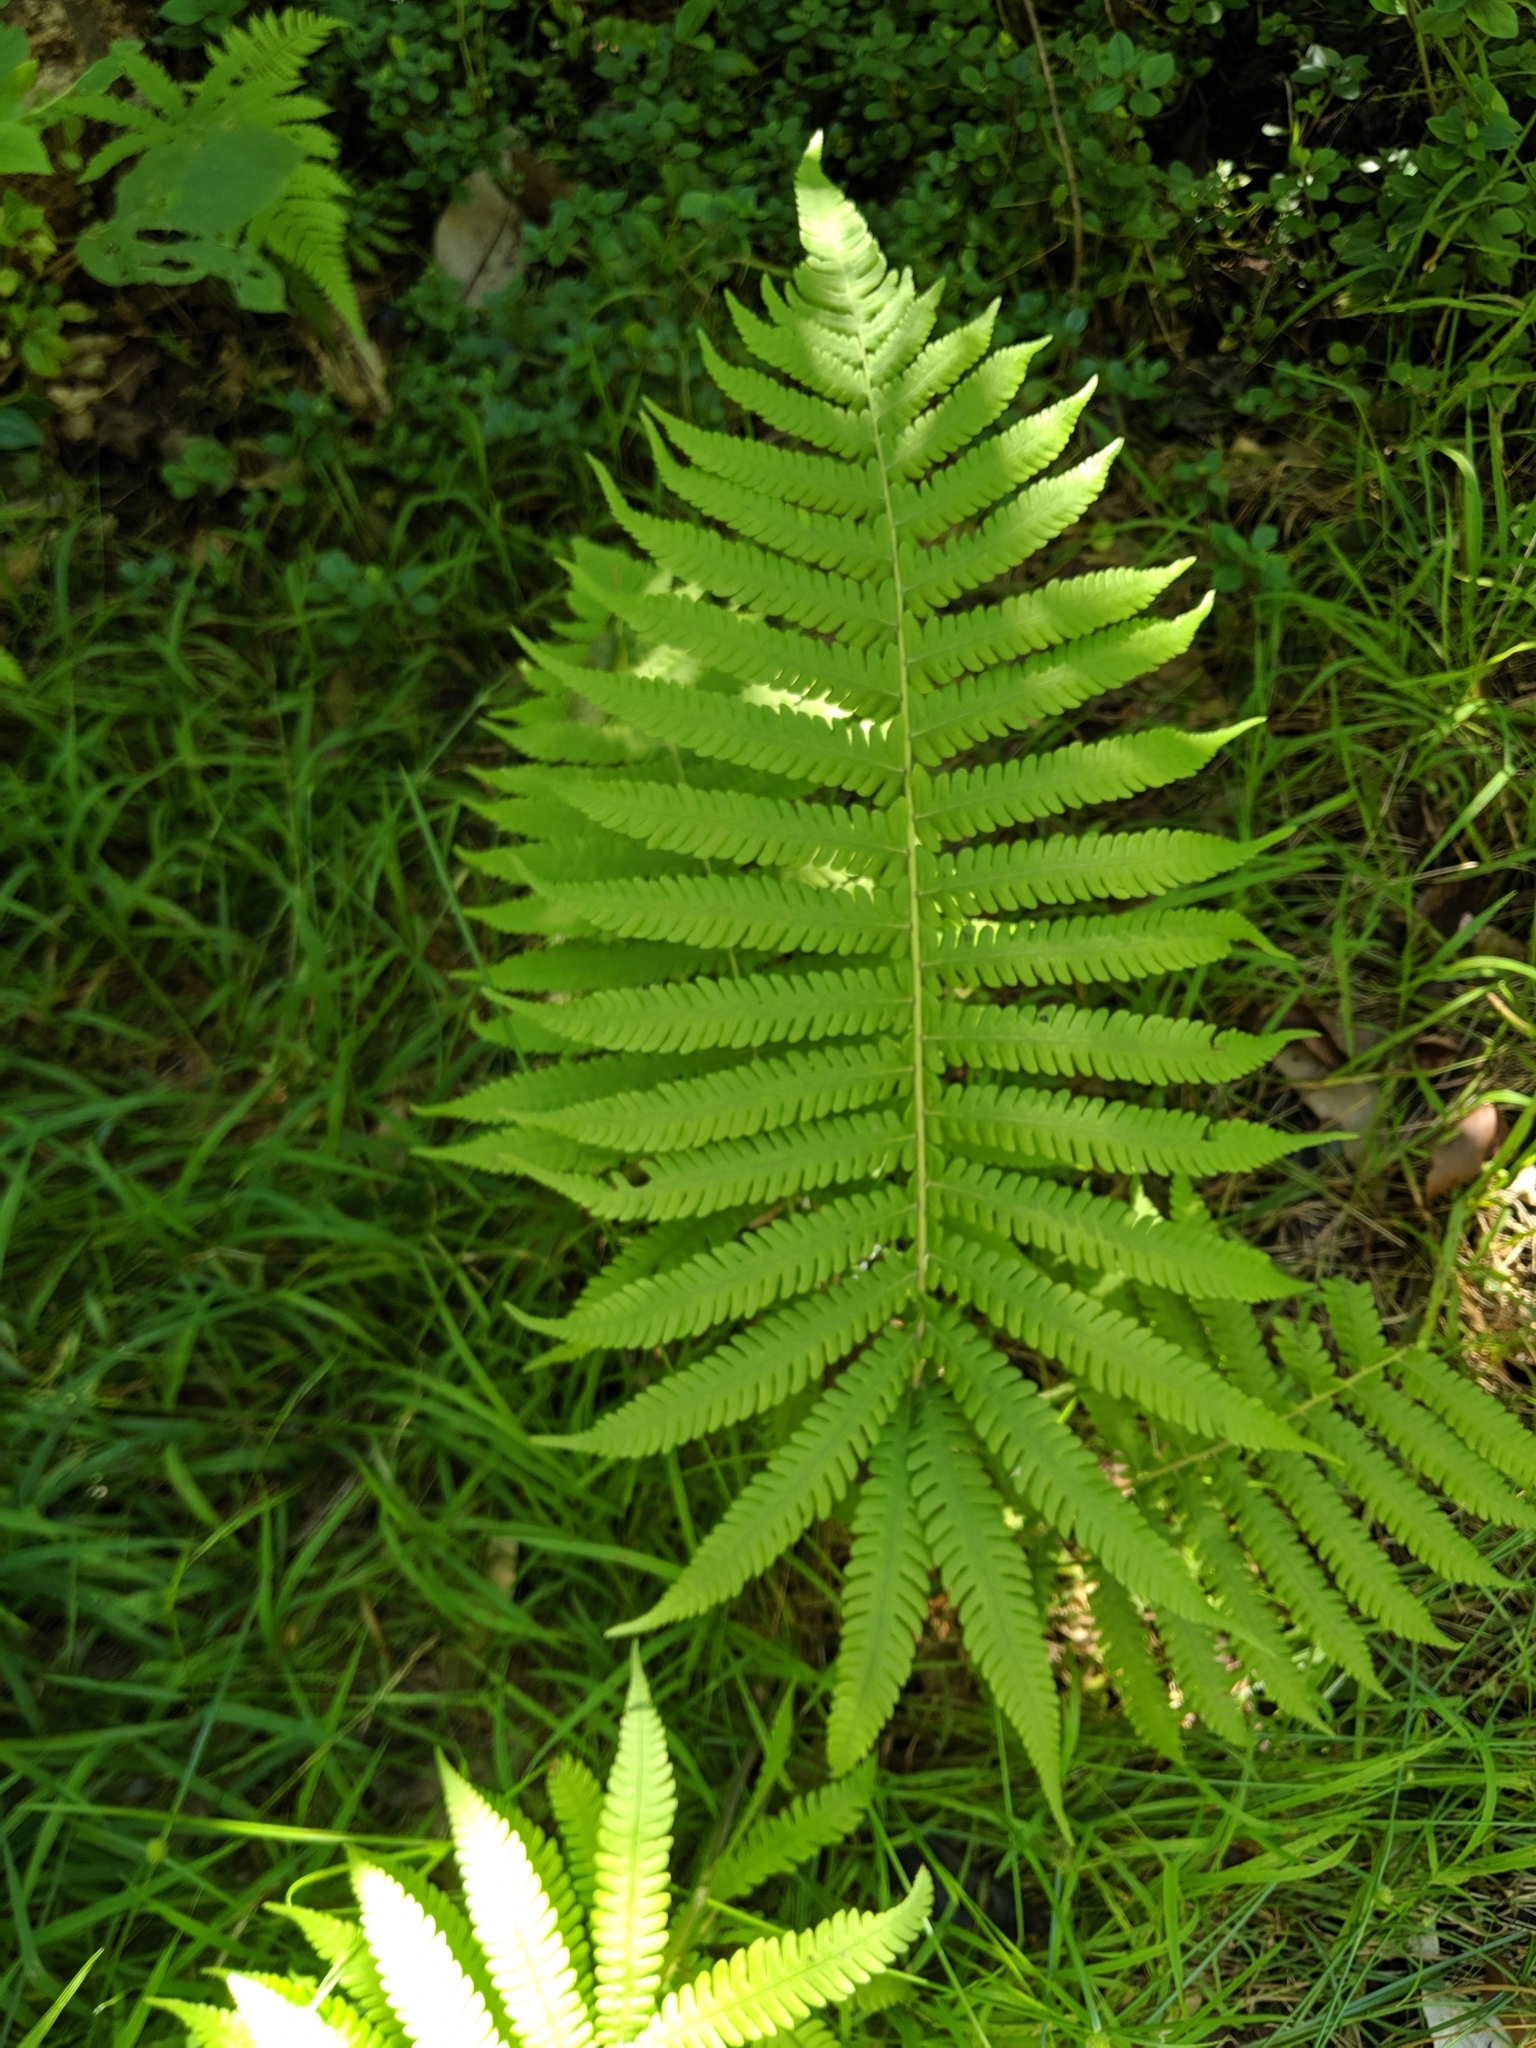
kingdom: Plantae
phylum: Tracheophyta
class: Polypodiopsida
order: Polypodiales
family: Thelypteridaceae
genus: Christella
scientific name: Christella parasitica
